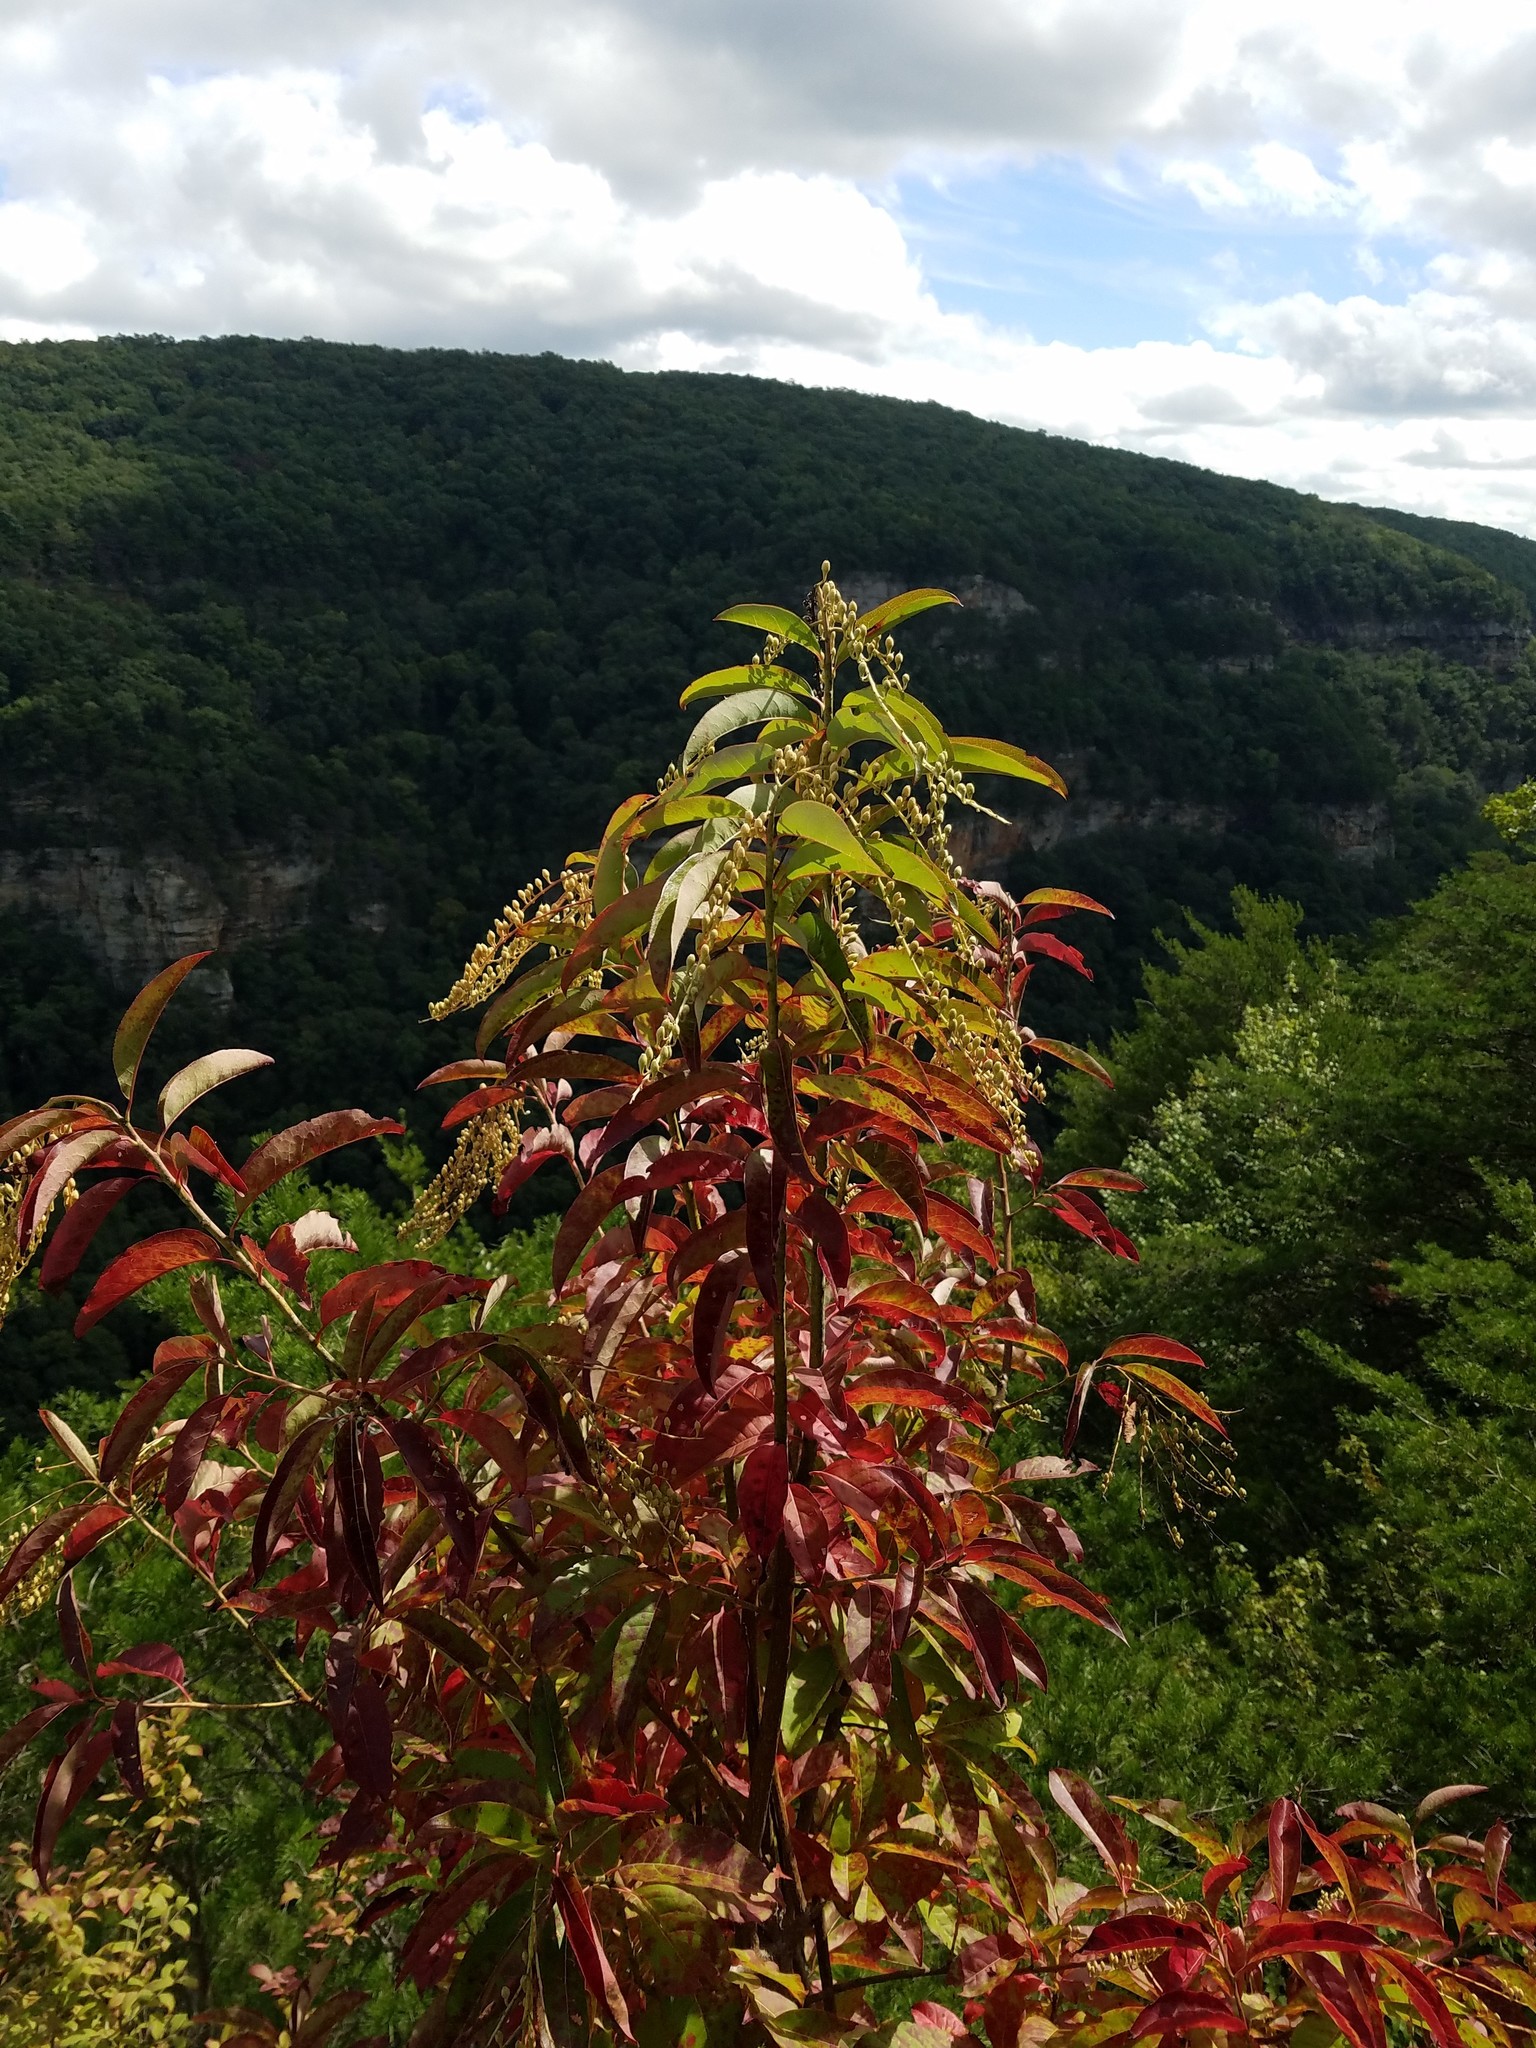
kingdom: Plantae
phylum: Tracheophyta
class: Magnoliopsida
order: Ericales
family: Ericaceae
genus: Oxydendrum
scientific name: Oxydendrum arboreum
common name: Sourwood
